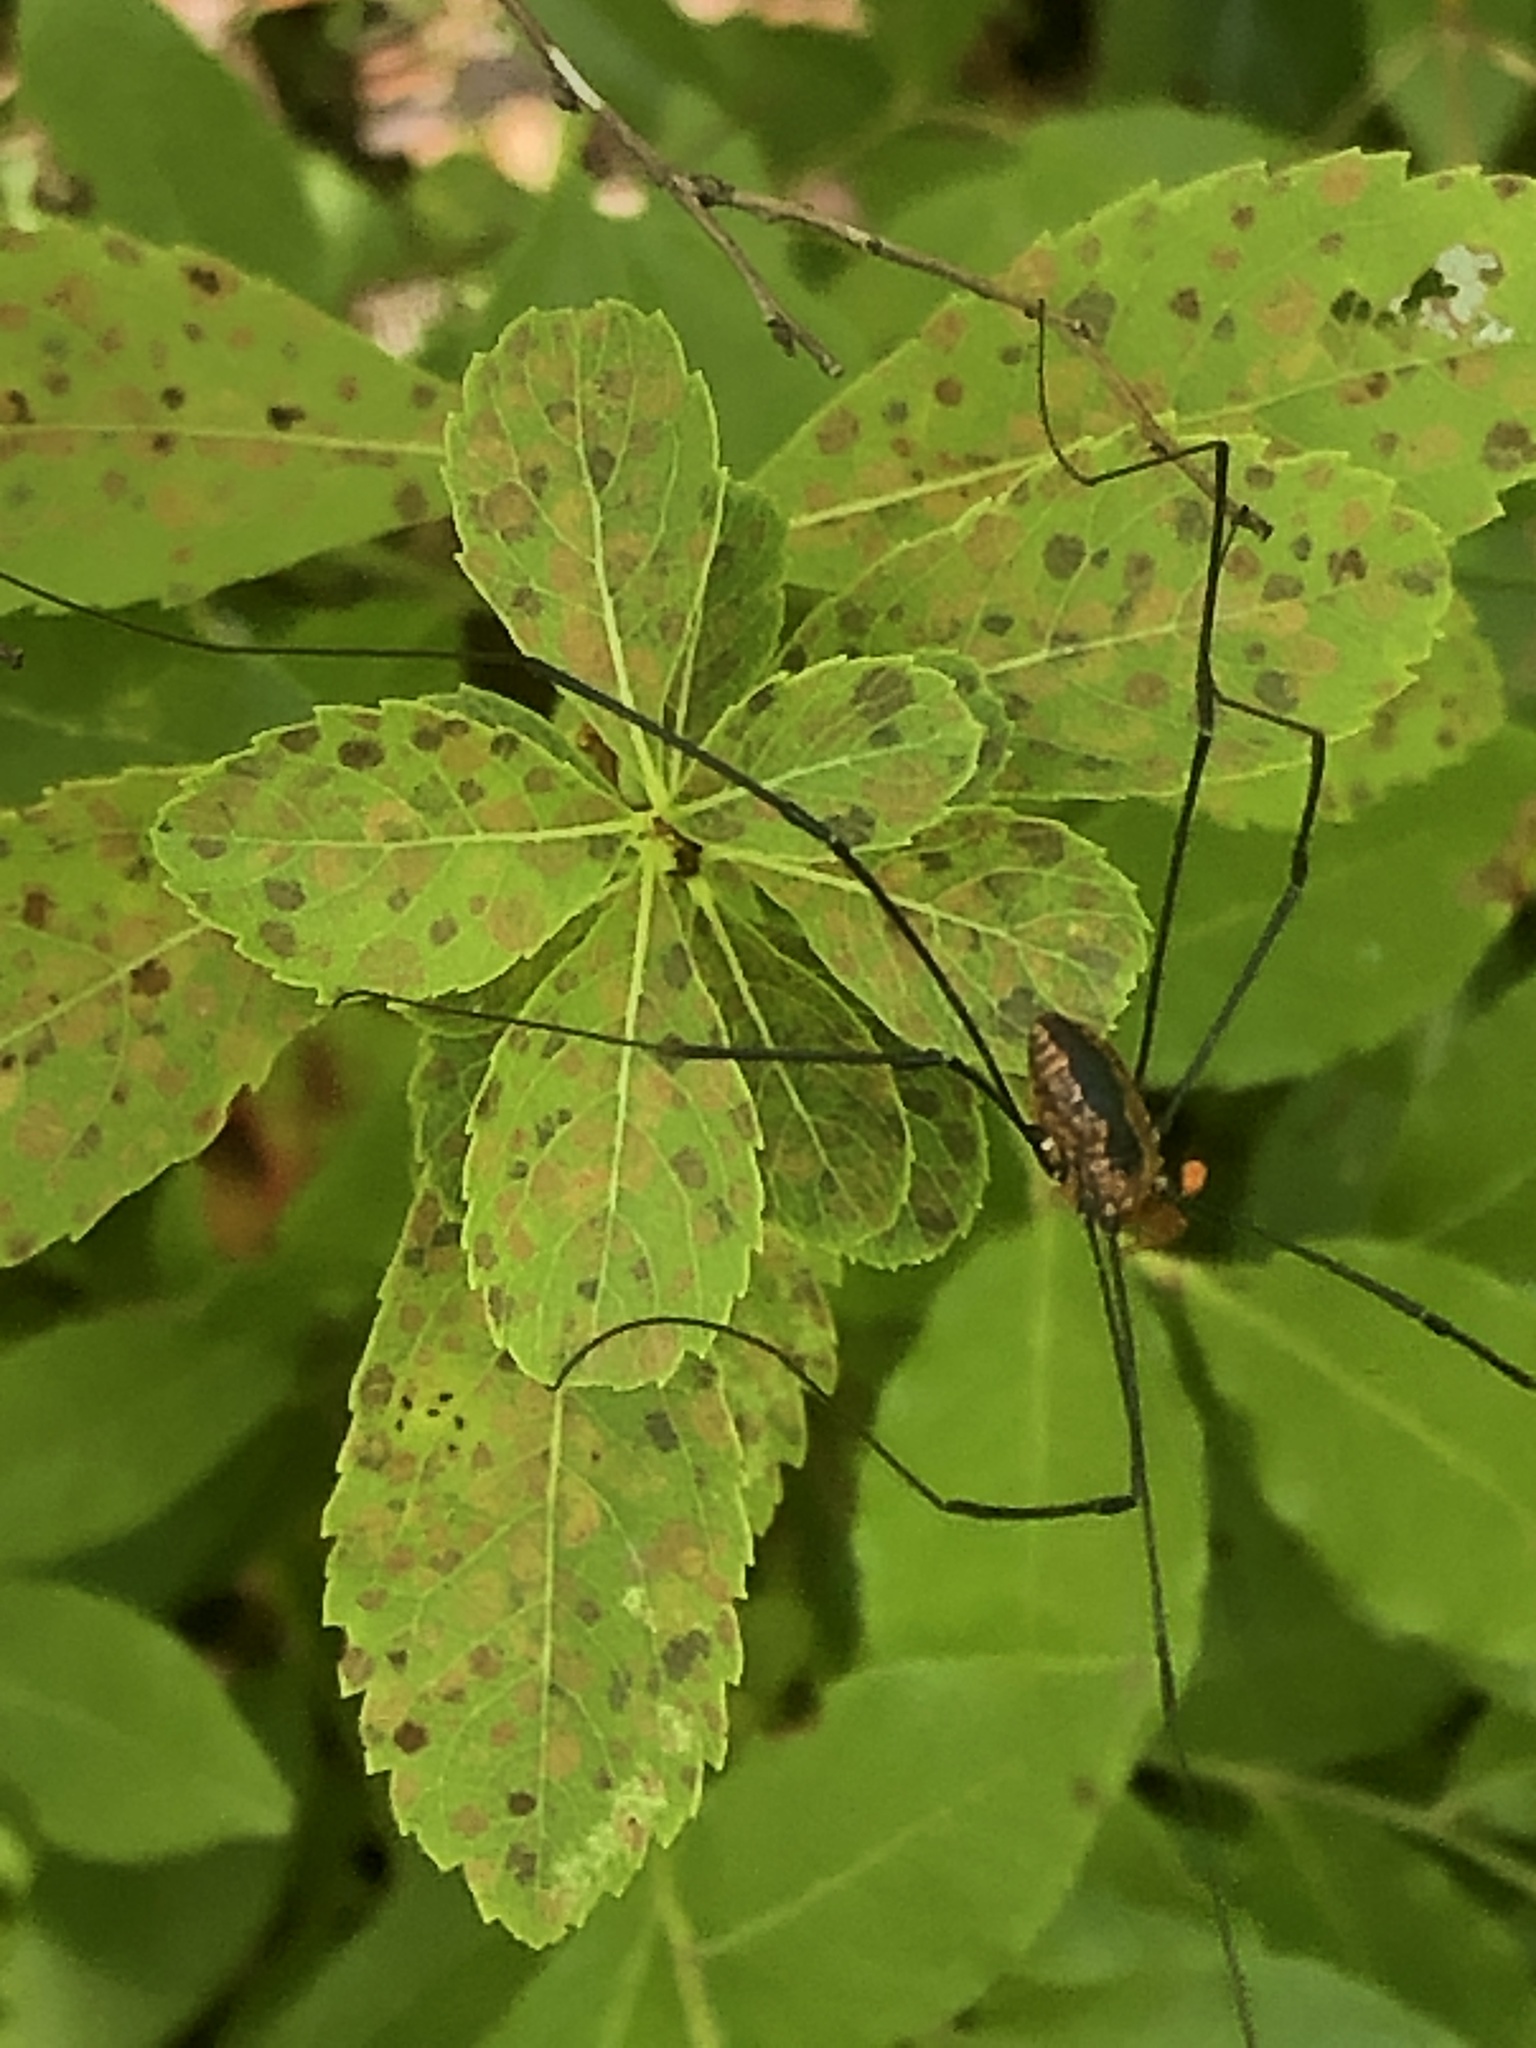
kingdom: Animalia
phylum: Arthropoda
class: Arachnida
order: Opiliones
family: Sclerosomatidae
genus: Leiobunum
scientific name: Leiobunum vittatum
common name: Eastern harvestman
